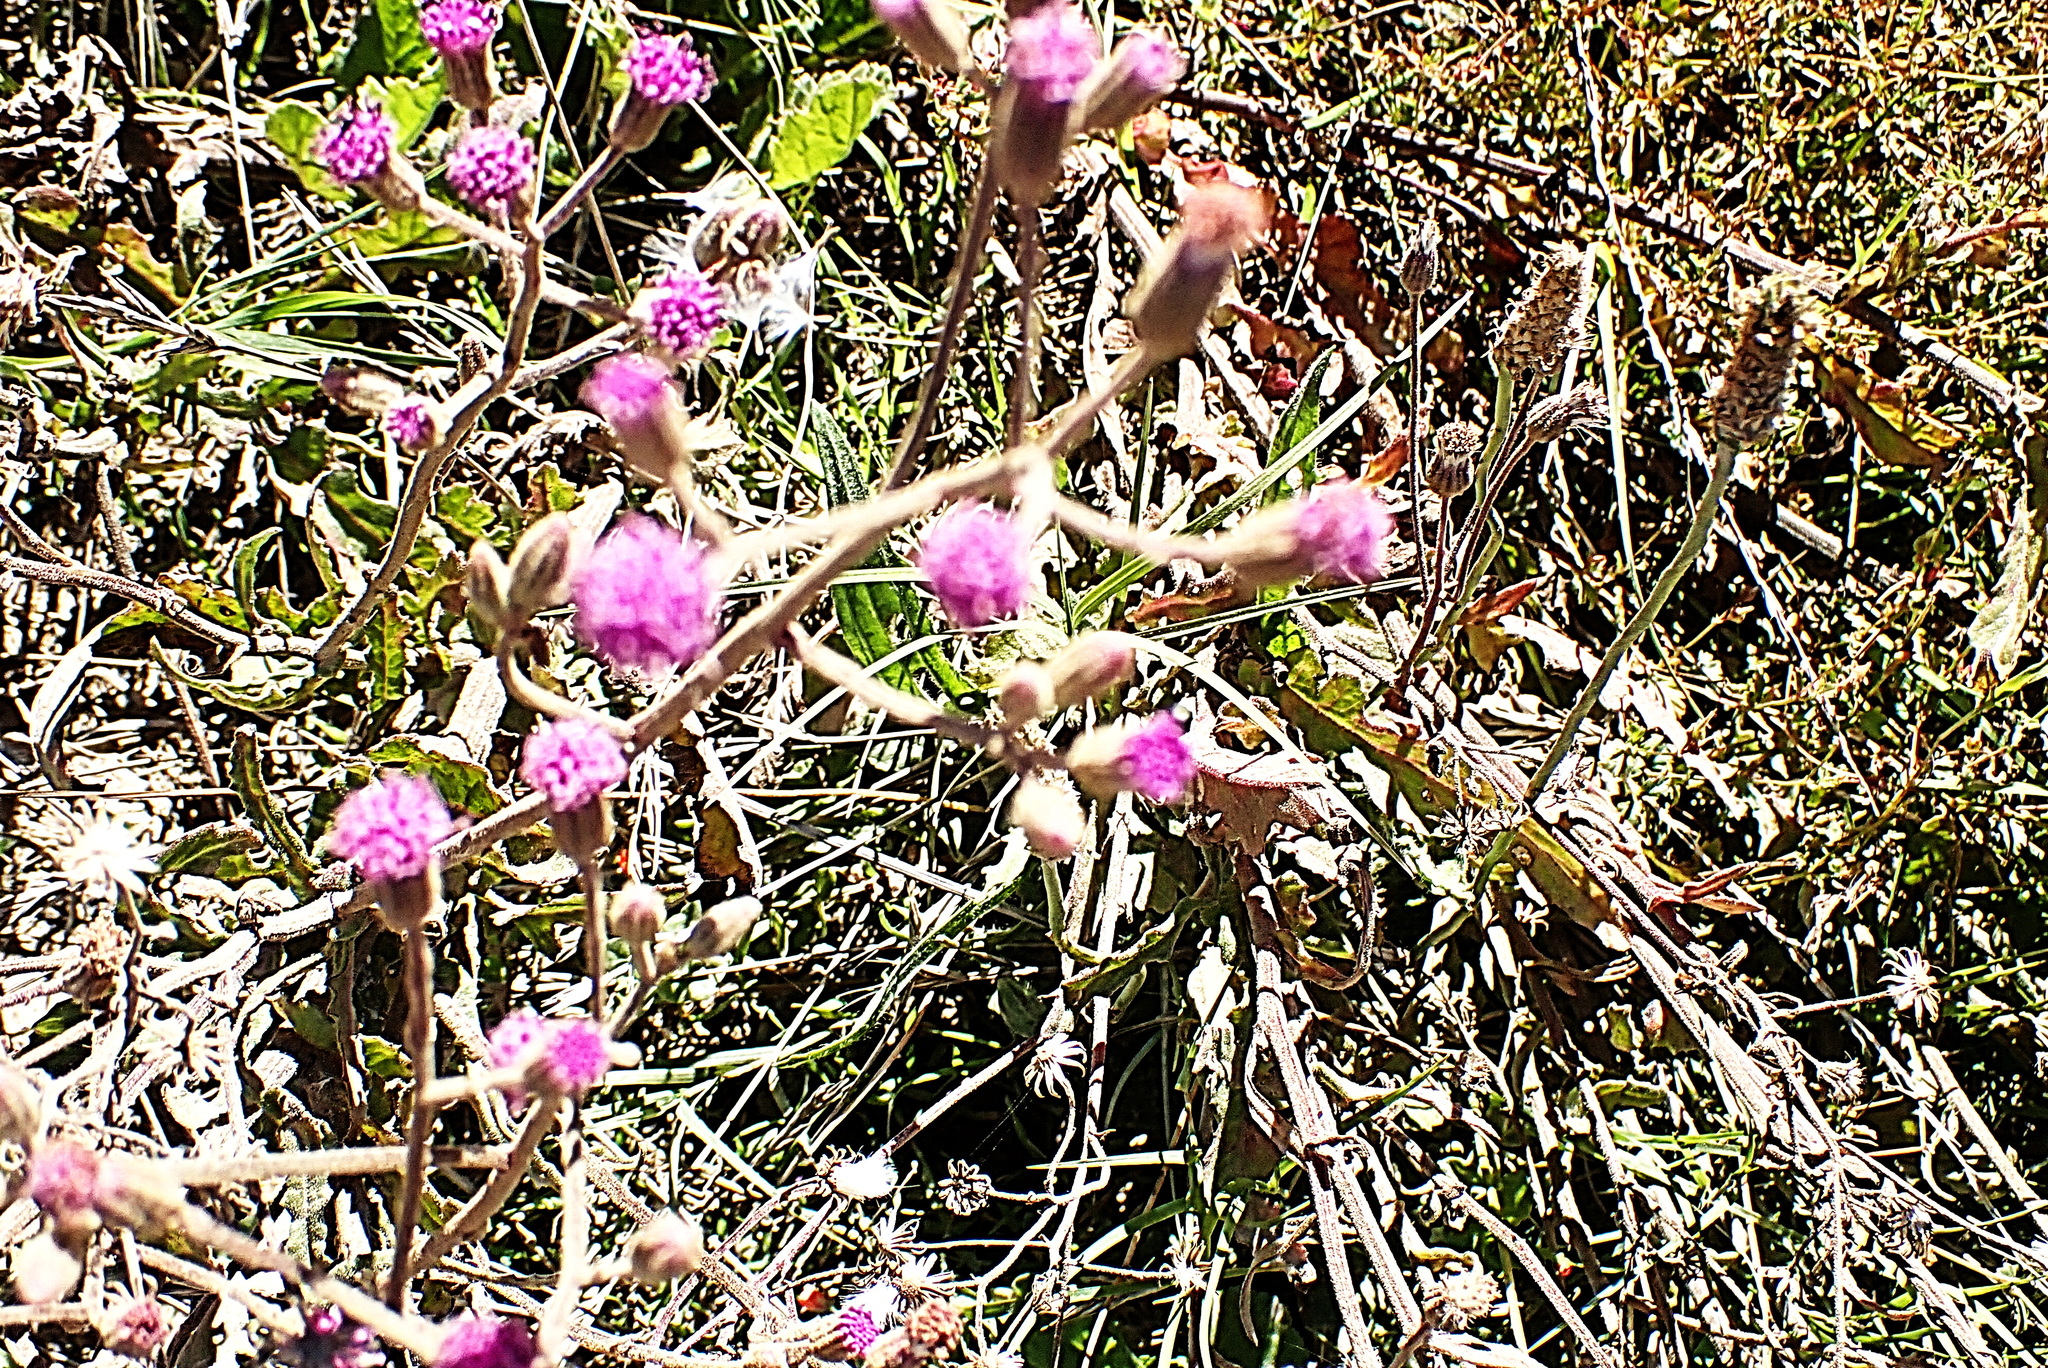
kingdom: Plantae
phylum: Tracheophyta
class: Magnoliopsida
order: Asterales
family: Asteraceae
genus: Senecio
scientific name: Senecio purpureus
